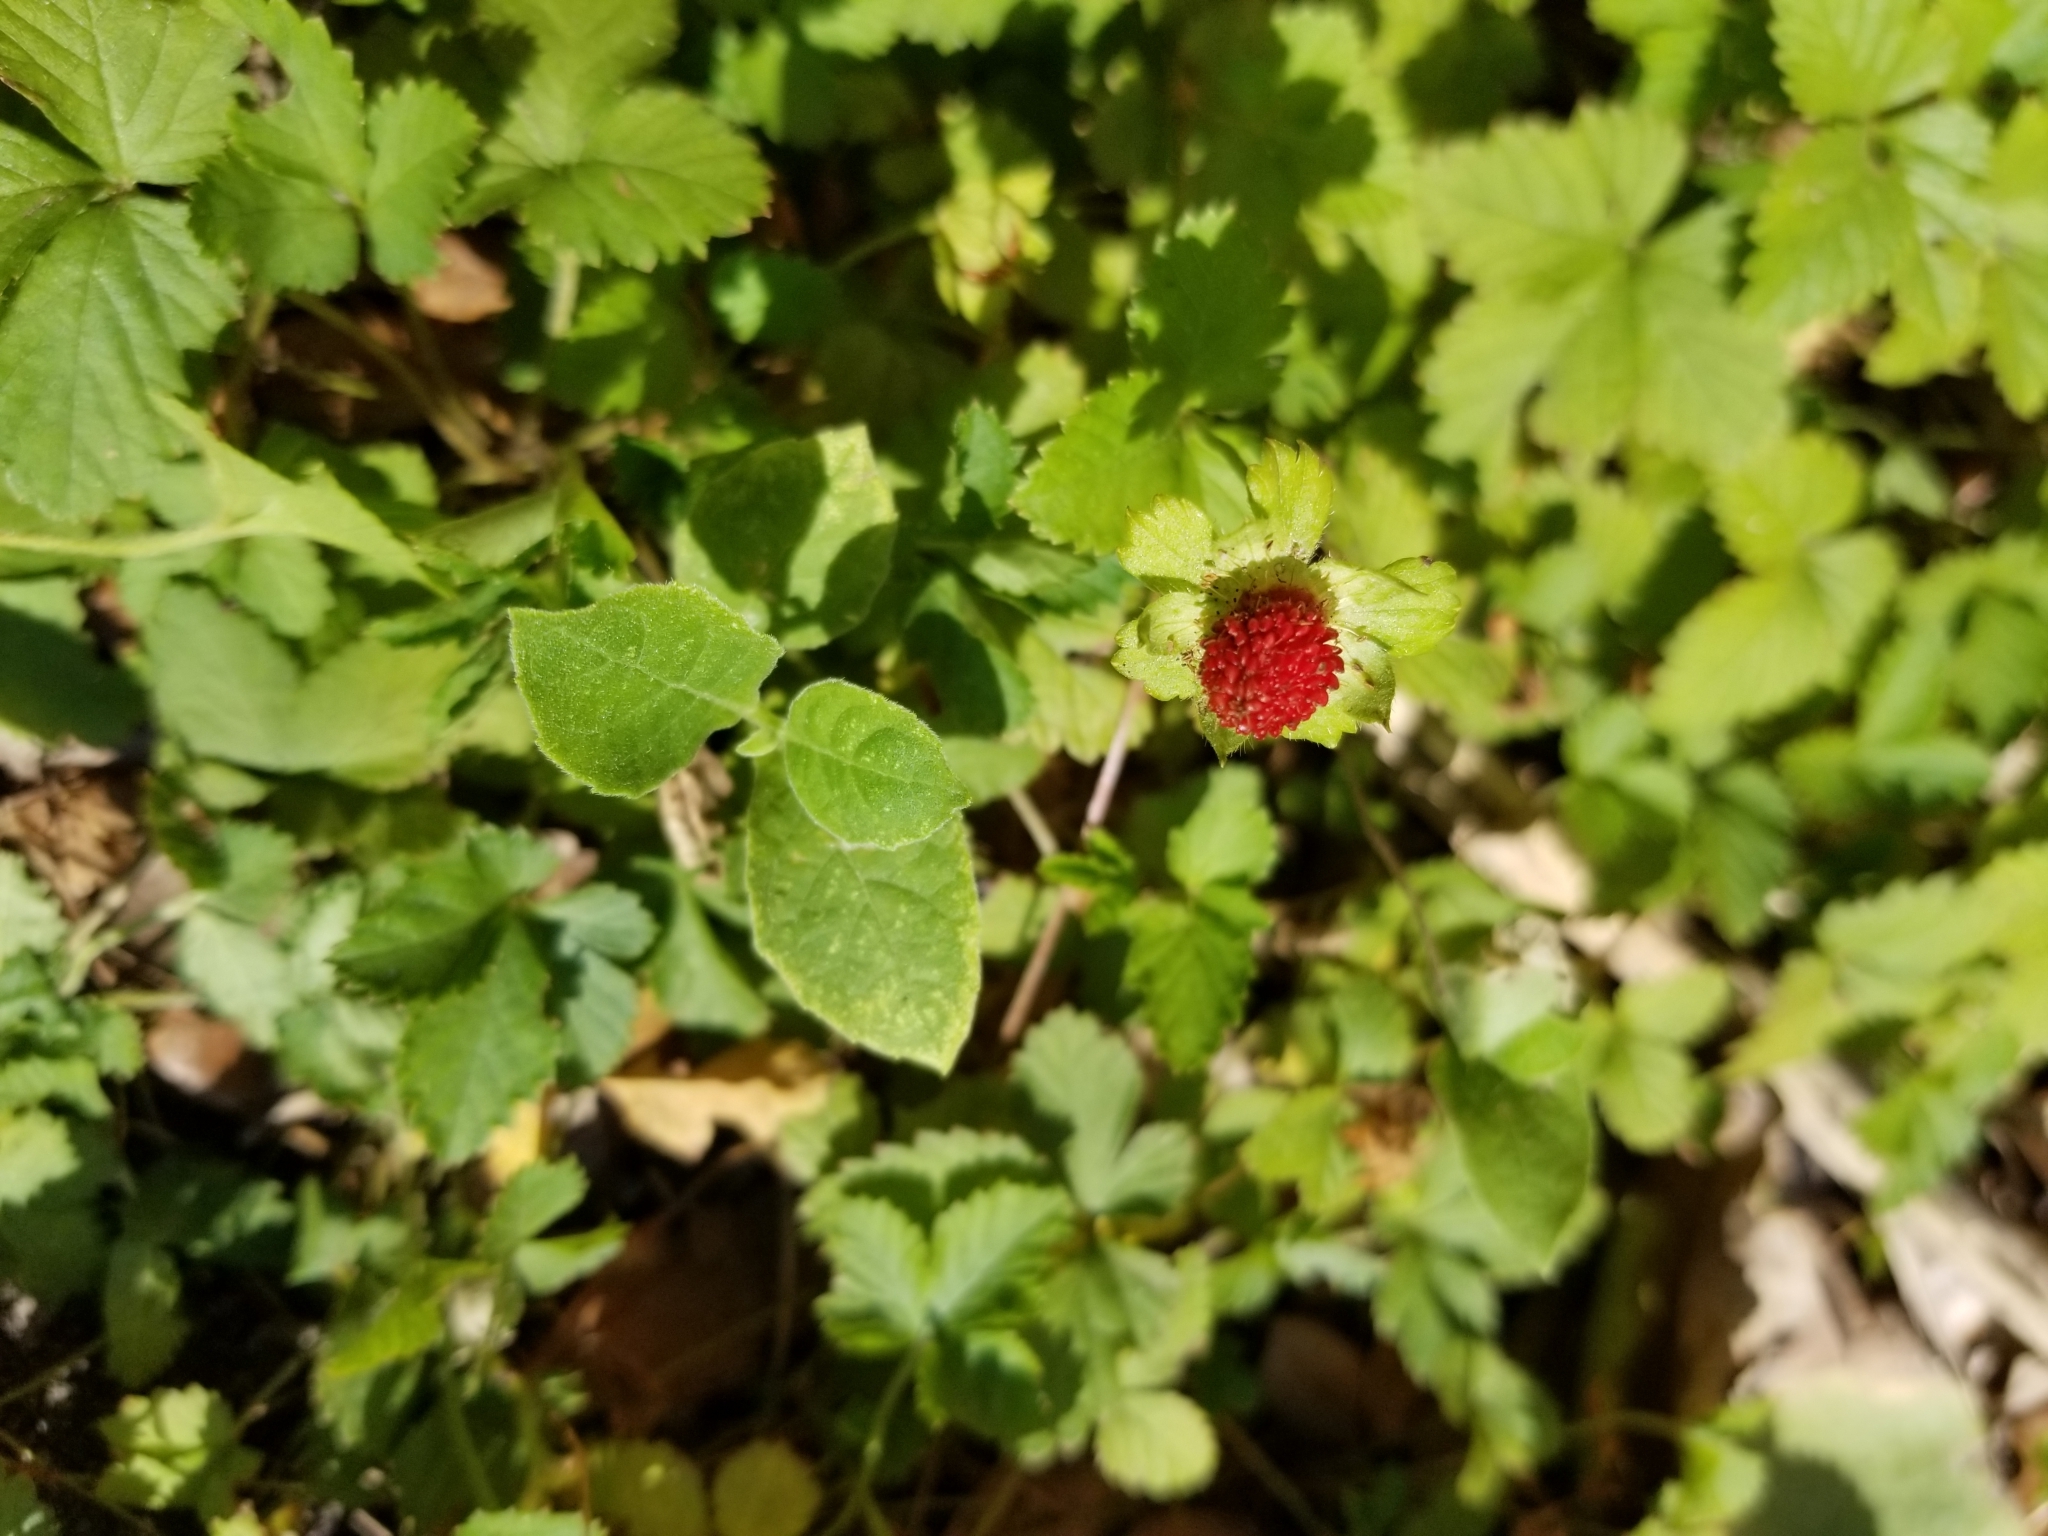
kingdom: Plantae
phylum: Tracheophyta
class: Magnoliopsida
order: Rosales
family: Rosaceae
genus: Potentilla
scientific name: Potentilla indica
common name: Yellow-flowered strawberry
